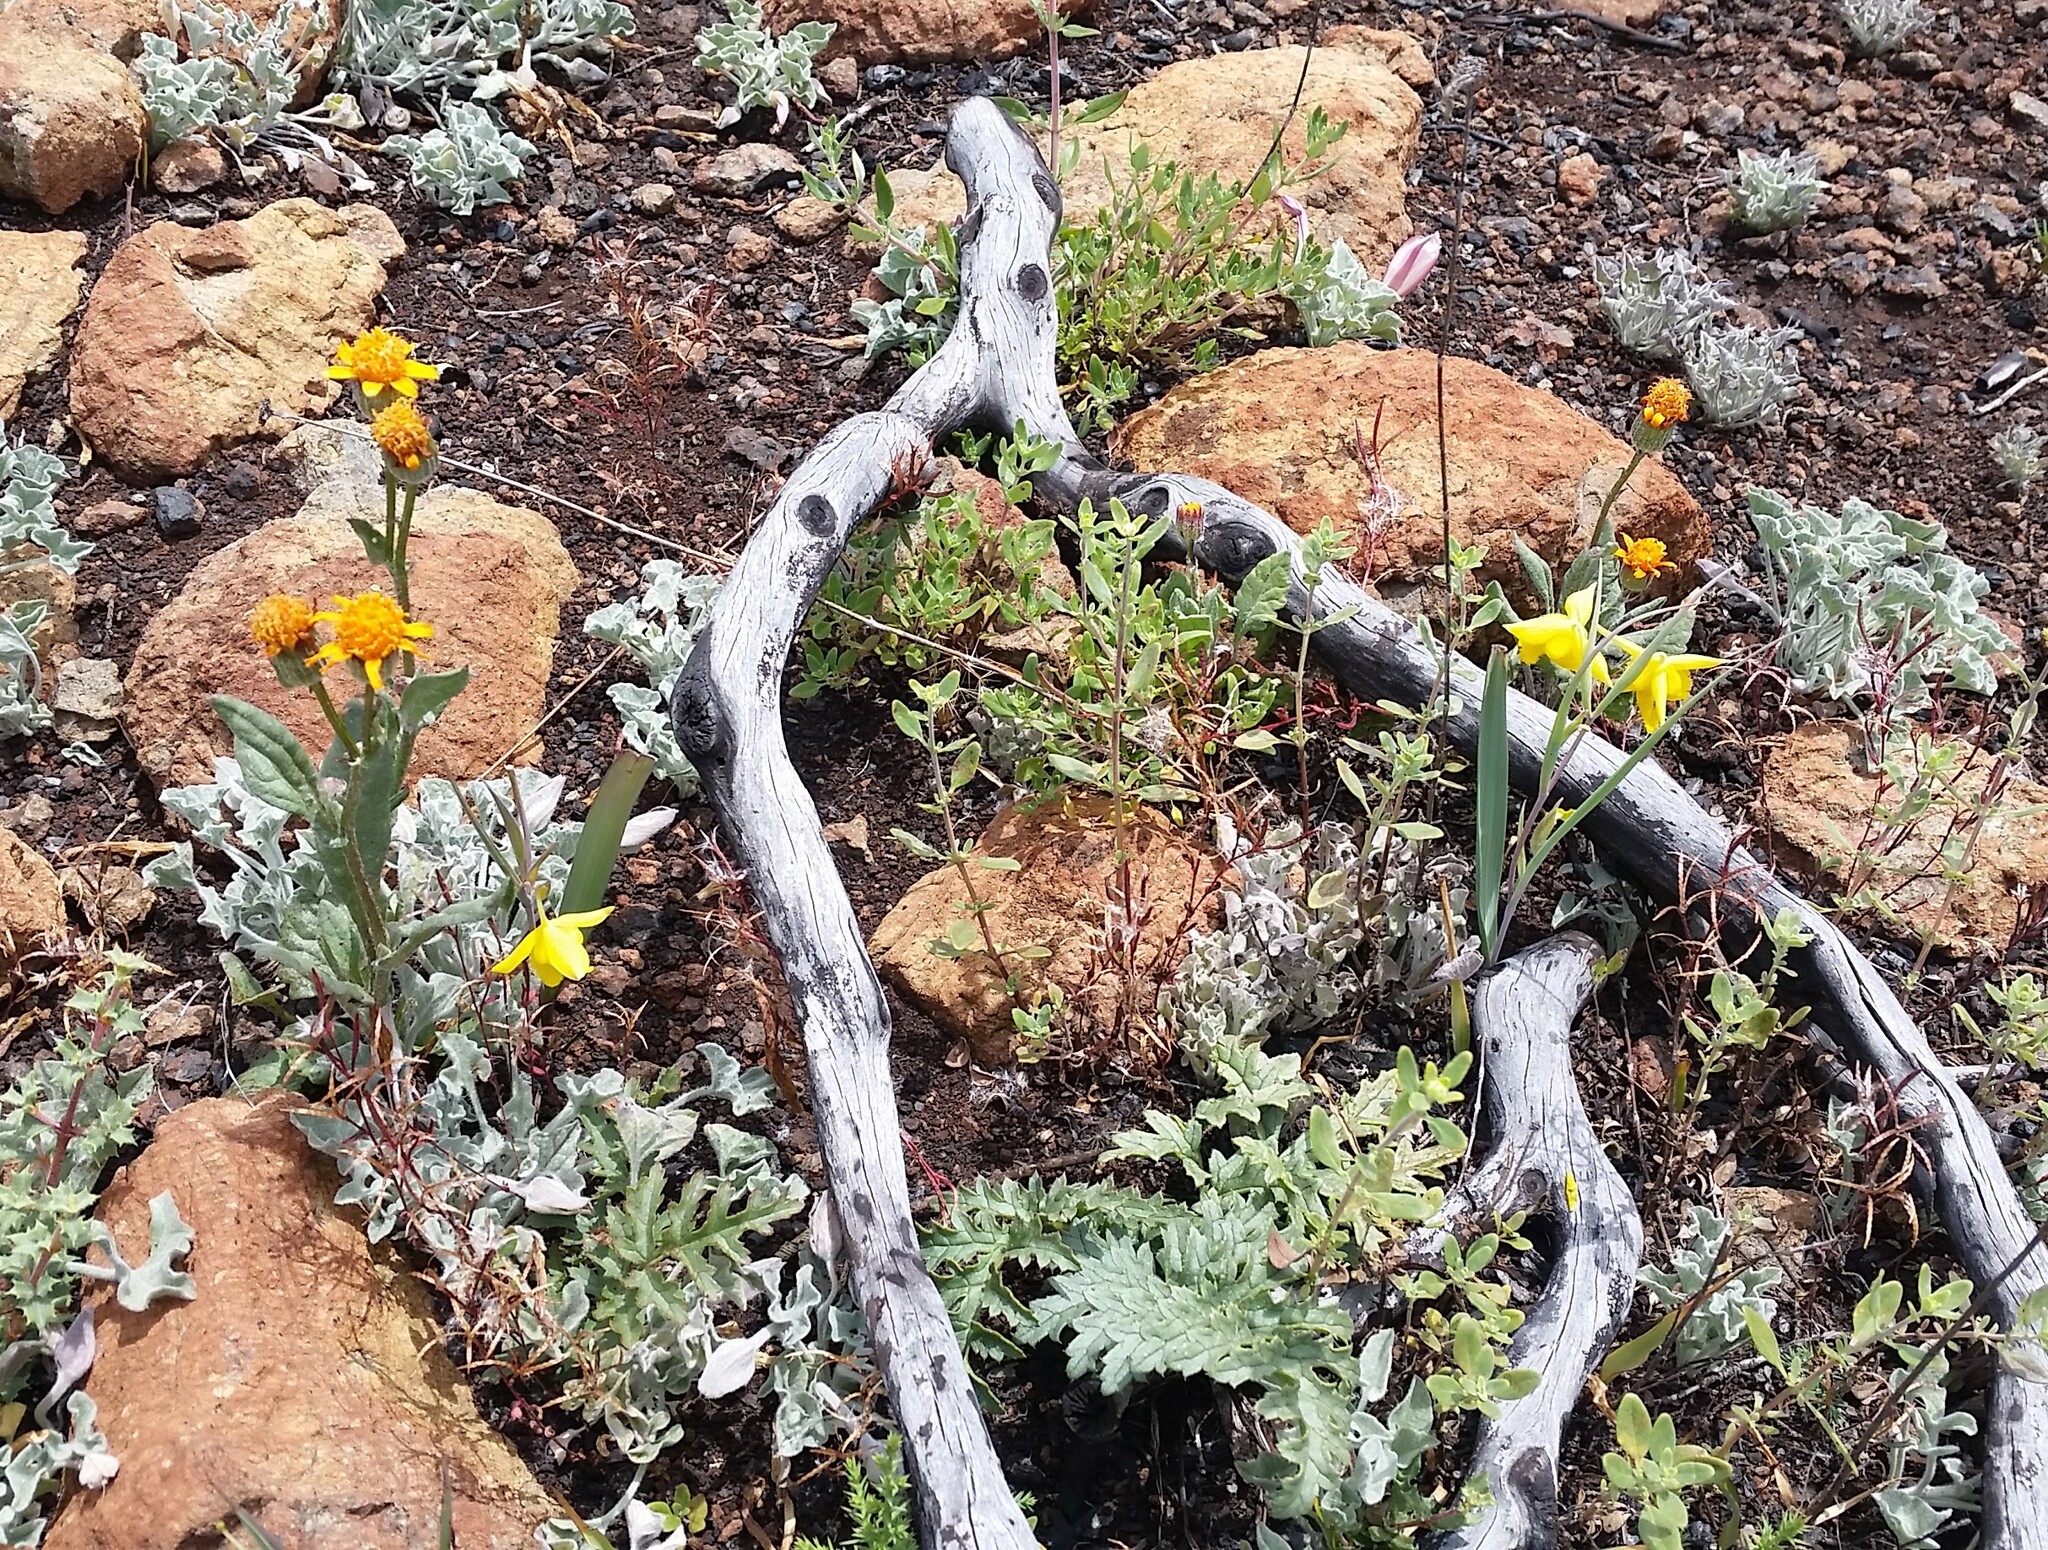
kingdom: Plantae
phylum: Tracheophyta
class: Magnoliopsida
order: Asterales
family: Asteraceae
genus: Packera
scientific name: Packera greenei
